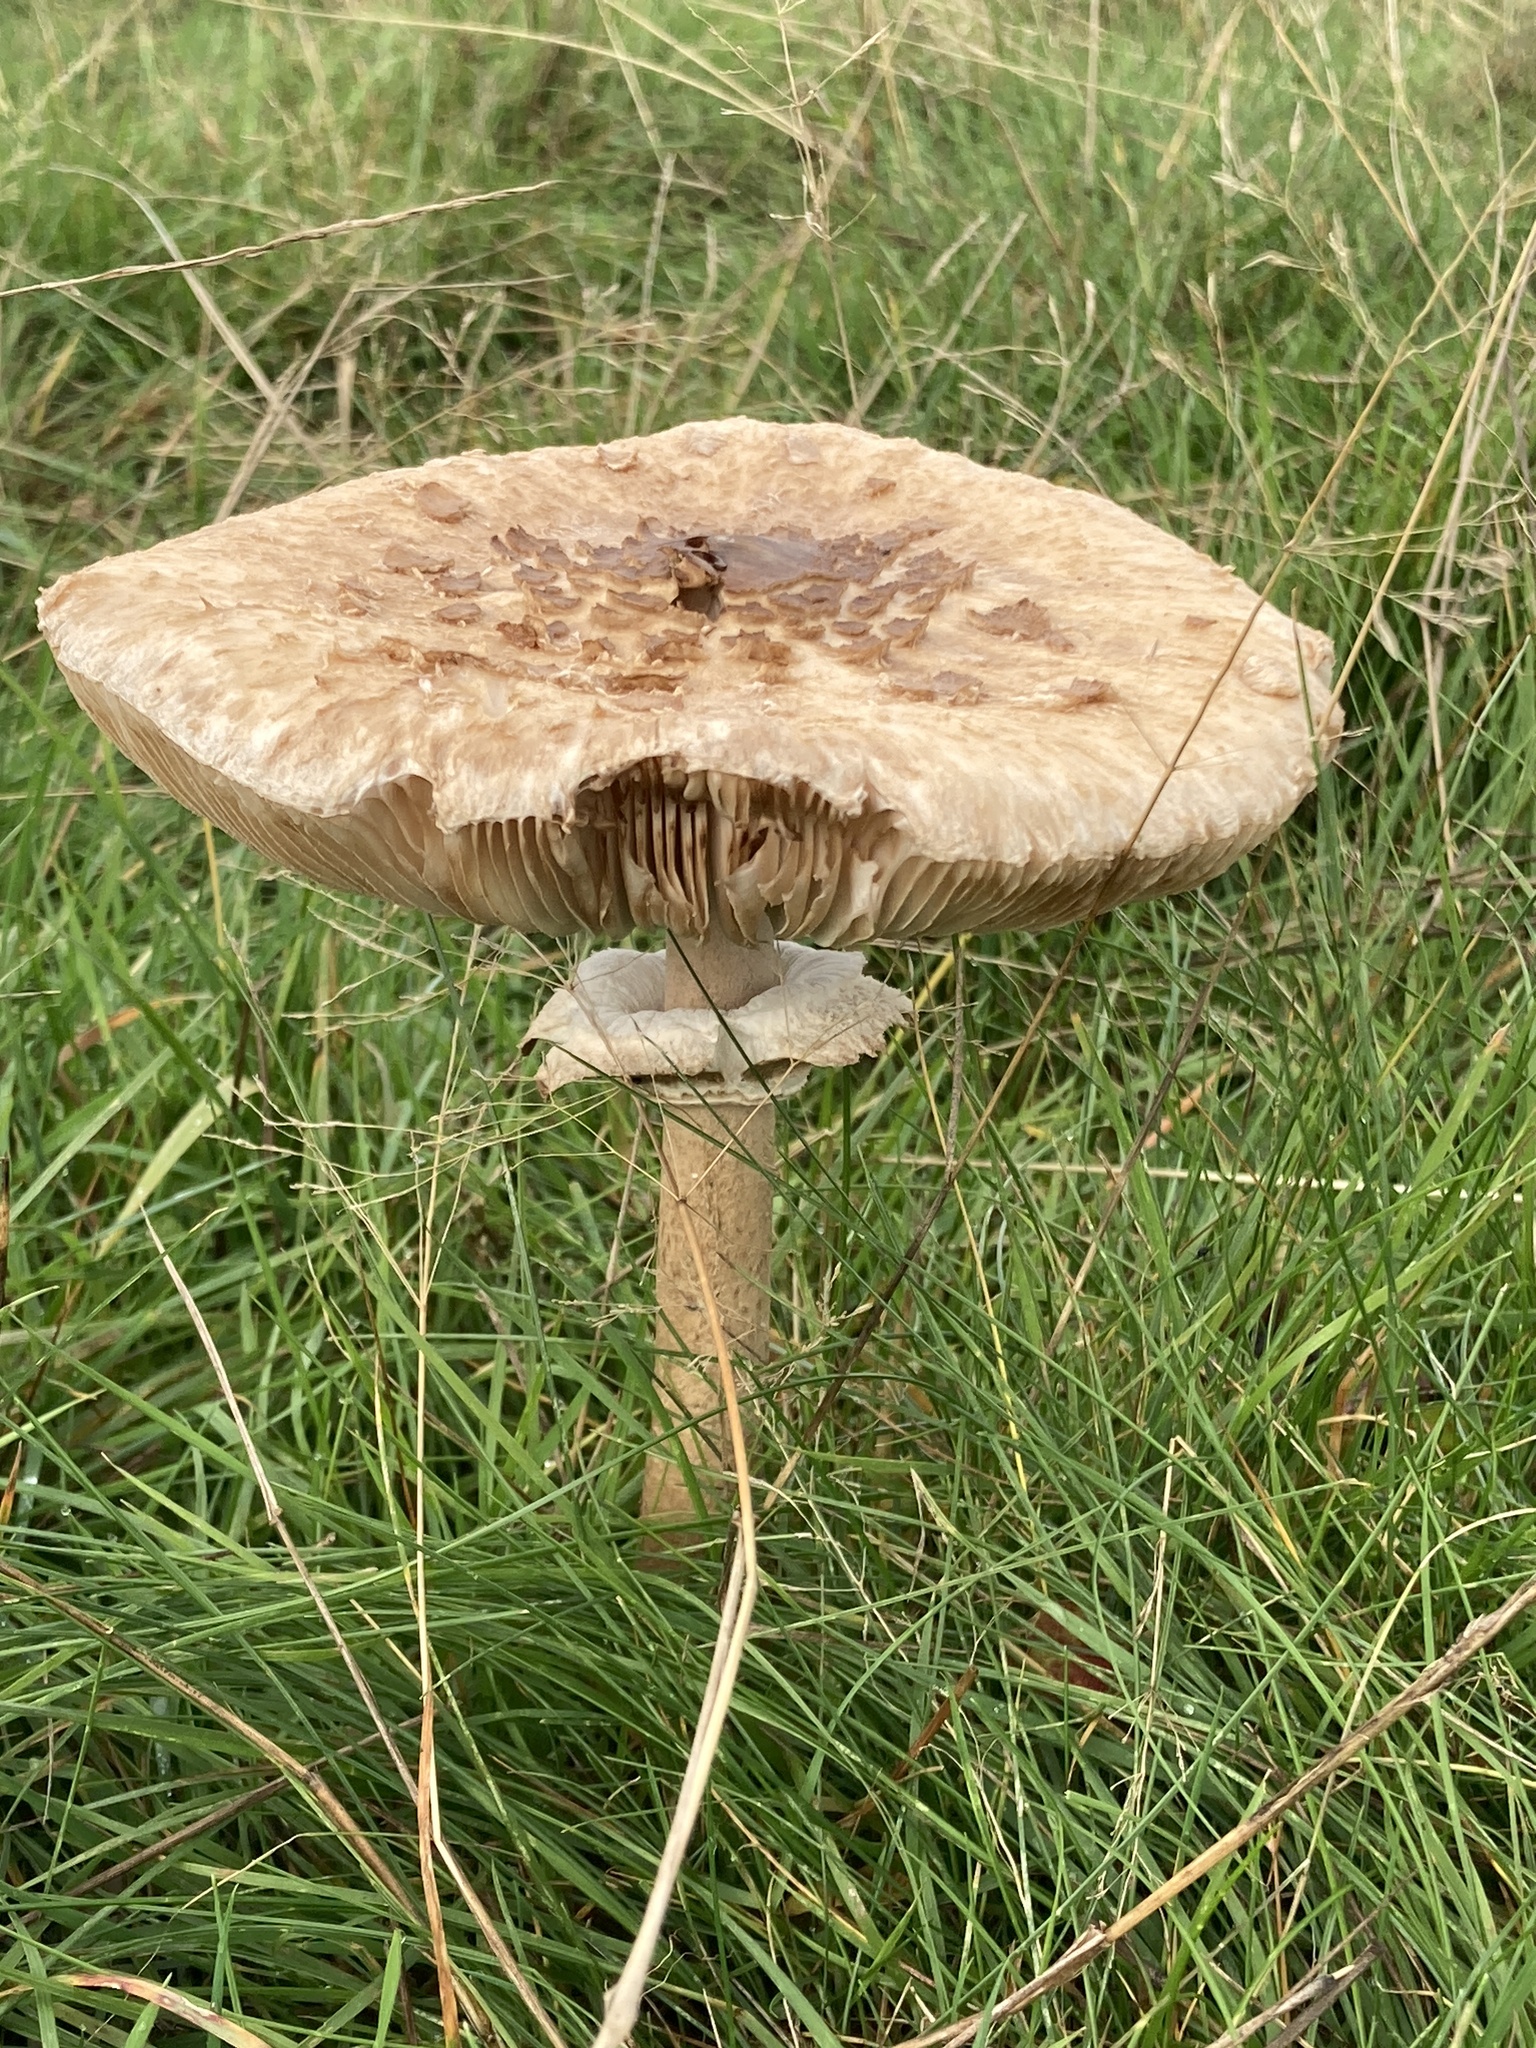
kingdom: Fungi
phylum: Basidiomycota
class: Agaricomycetes
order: Agaricales
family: Agaricaceae
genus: Macrolepiota
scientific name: Macrolepiota procera
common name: Parasol
